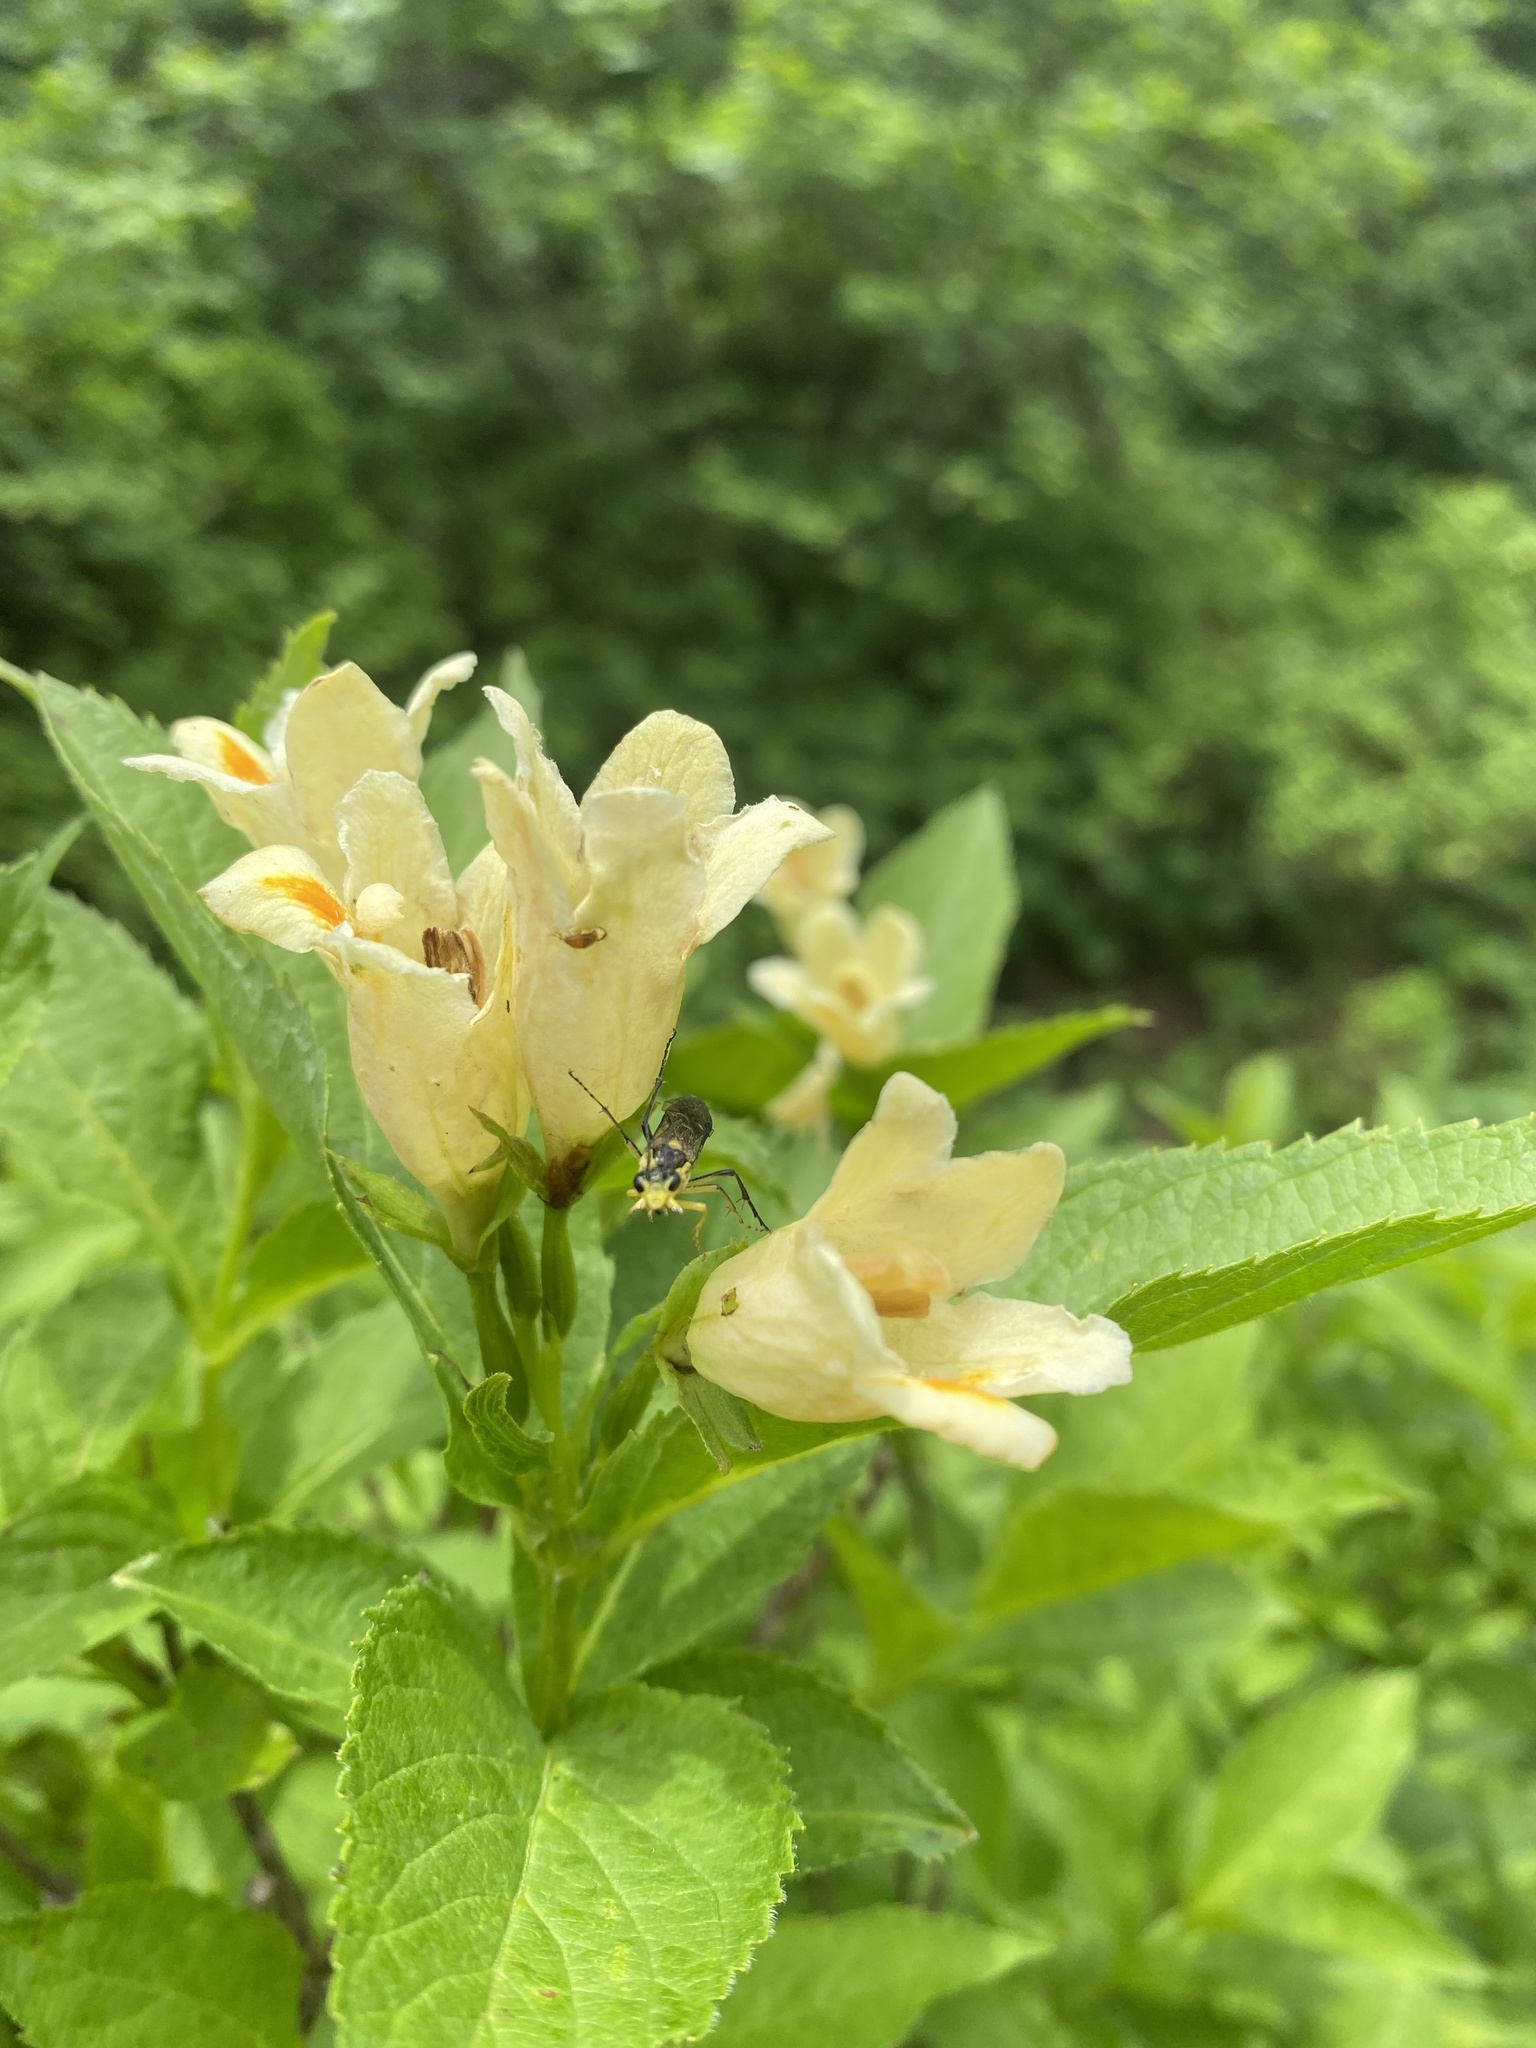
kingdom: Plantae
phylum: Tracheophyta
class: Magnoliopsida
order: Dipsacales
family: Caprifoliaceae
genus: Weigela
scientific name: Weigela middendorffiana
